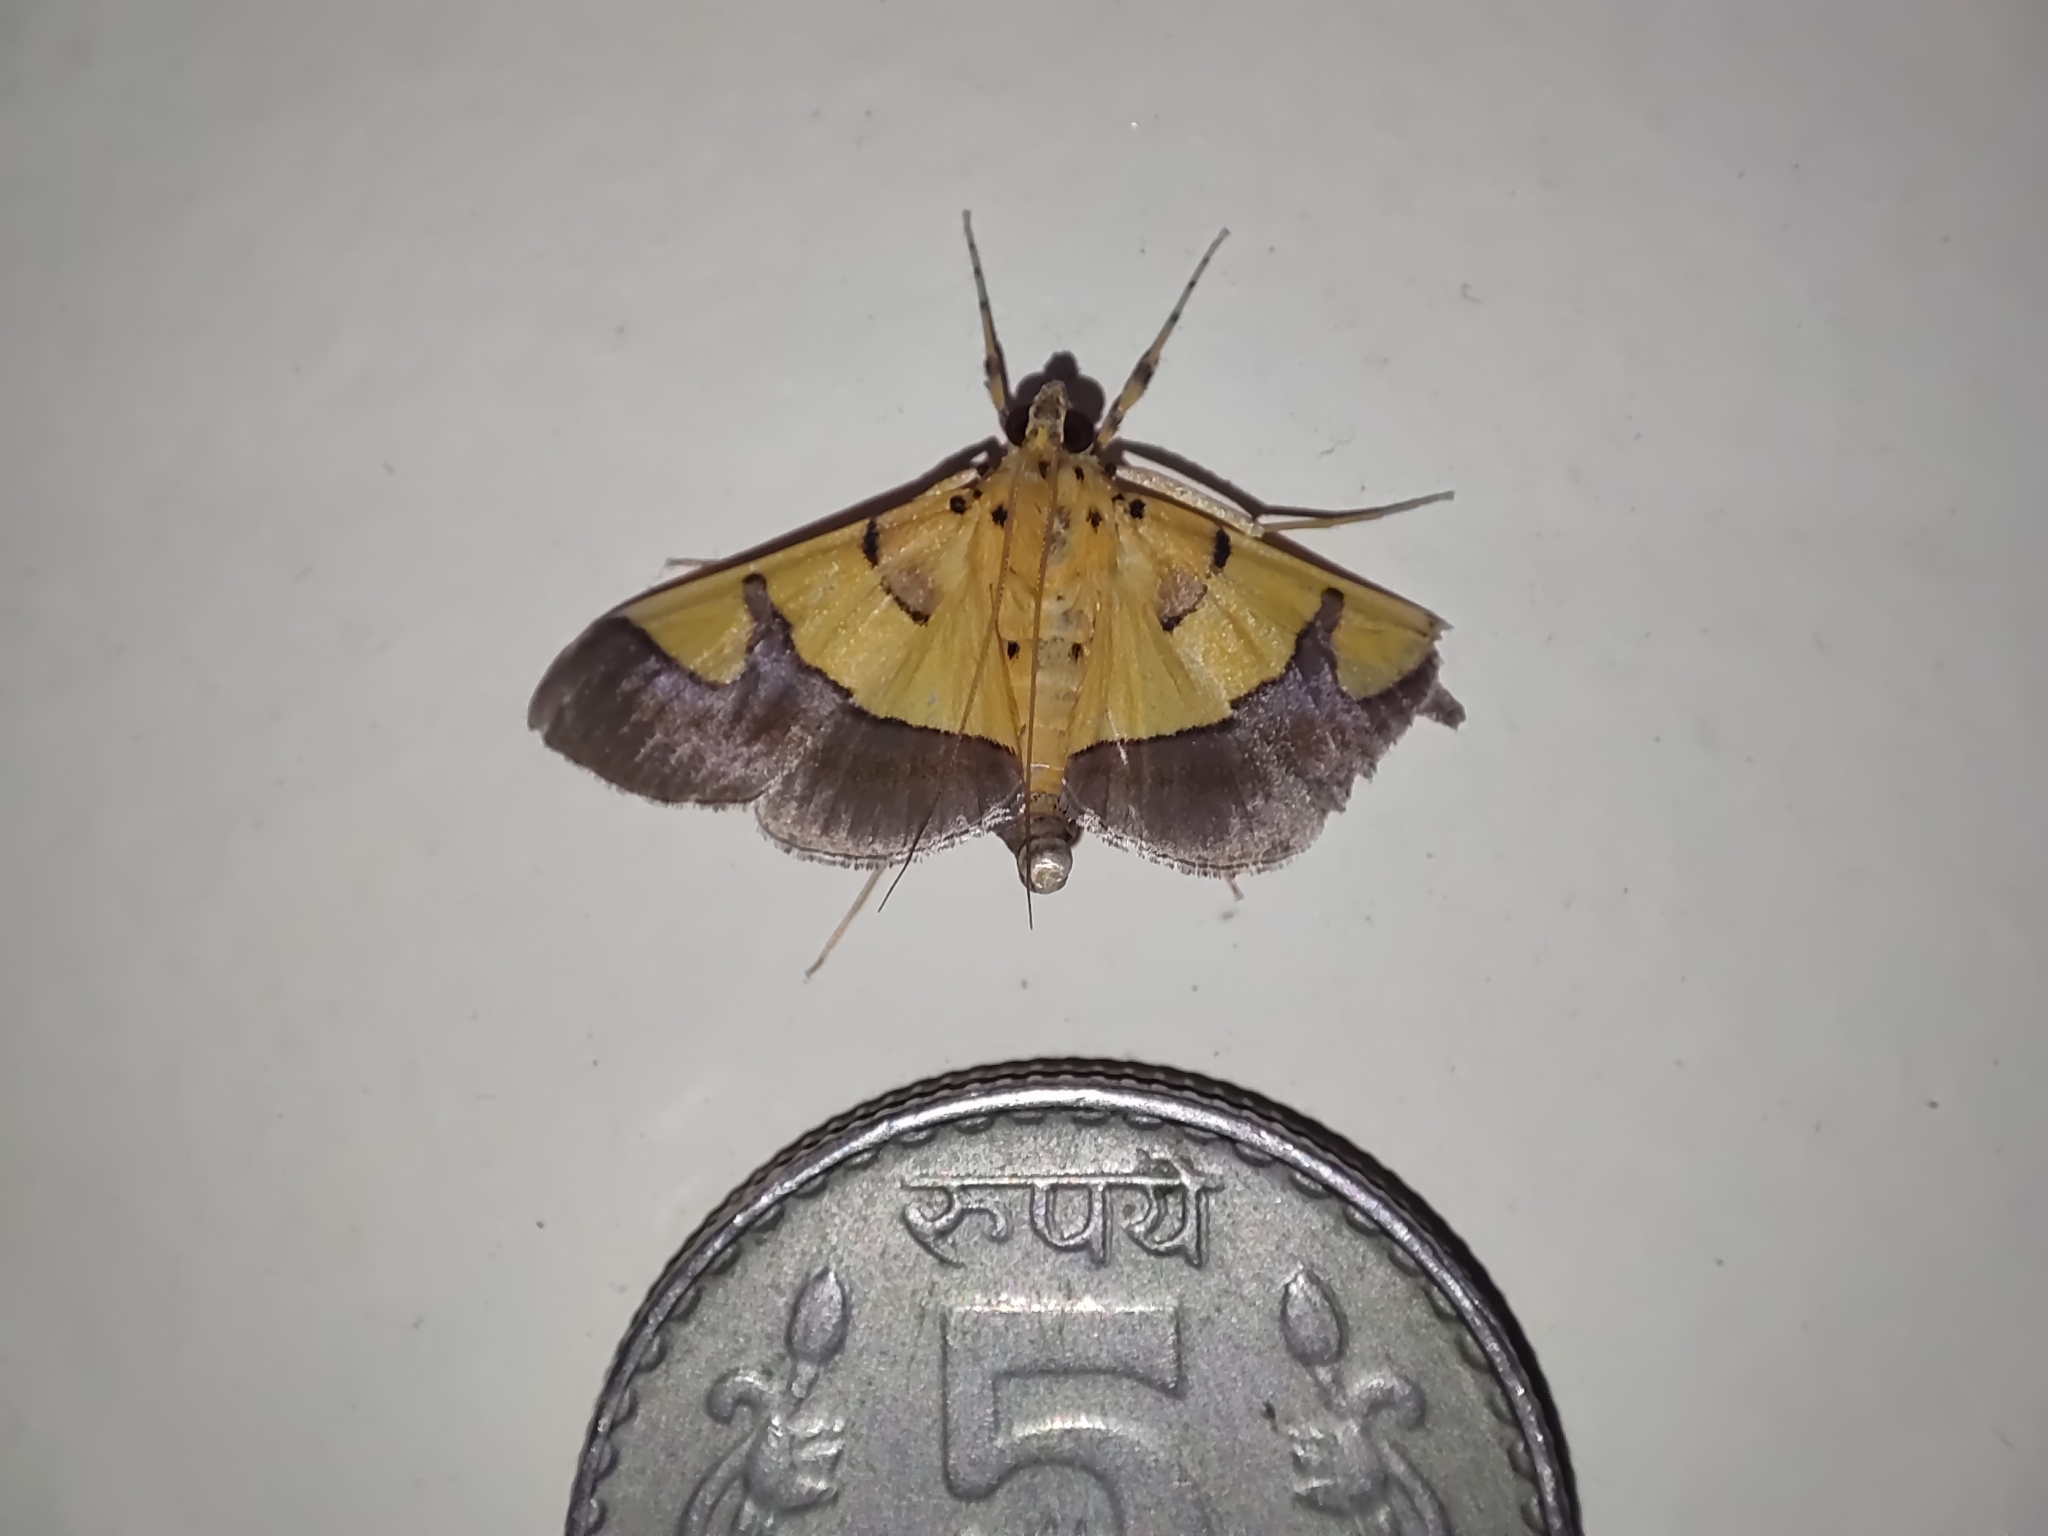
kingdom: Animalia
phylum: Arthropoda
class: Insecta
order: Lepidoptera
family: Crambidae
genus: Botyodes
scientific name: Botyodes
